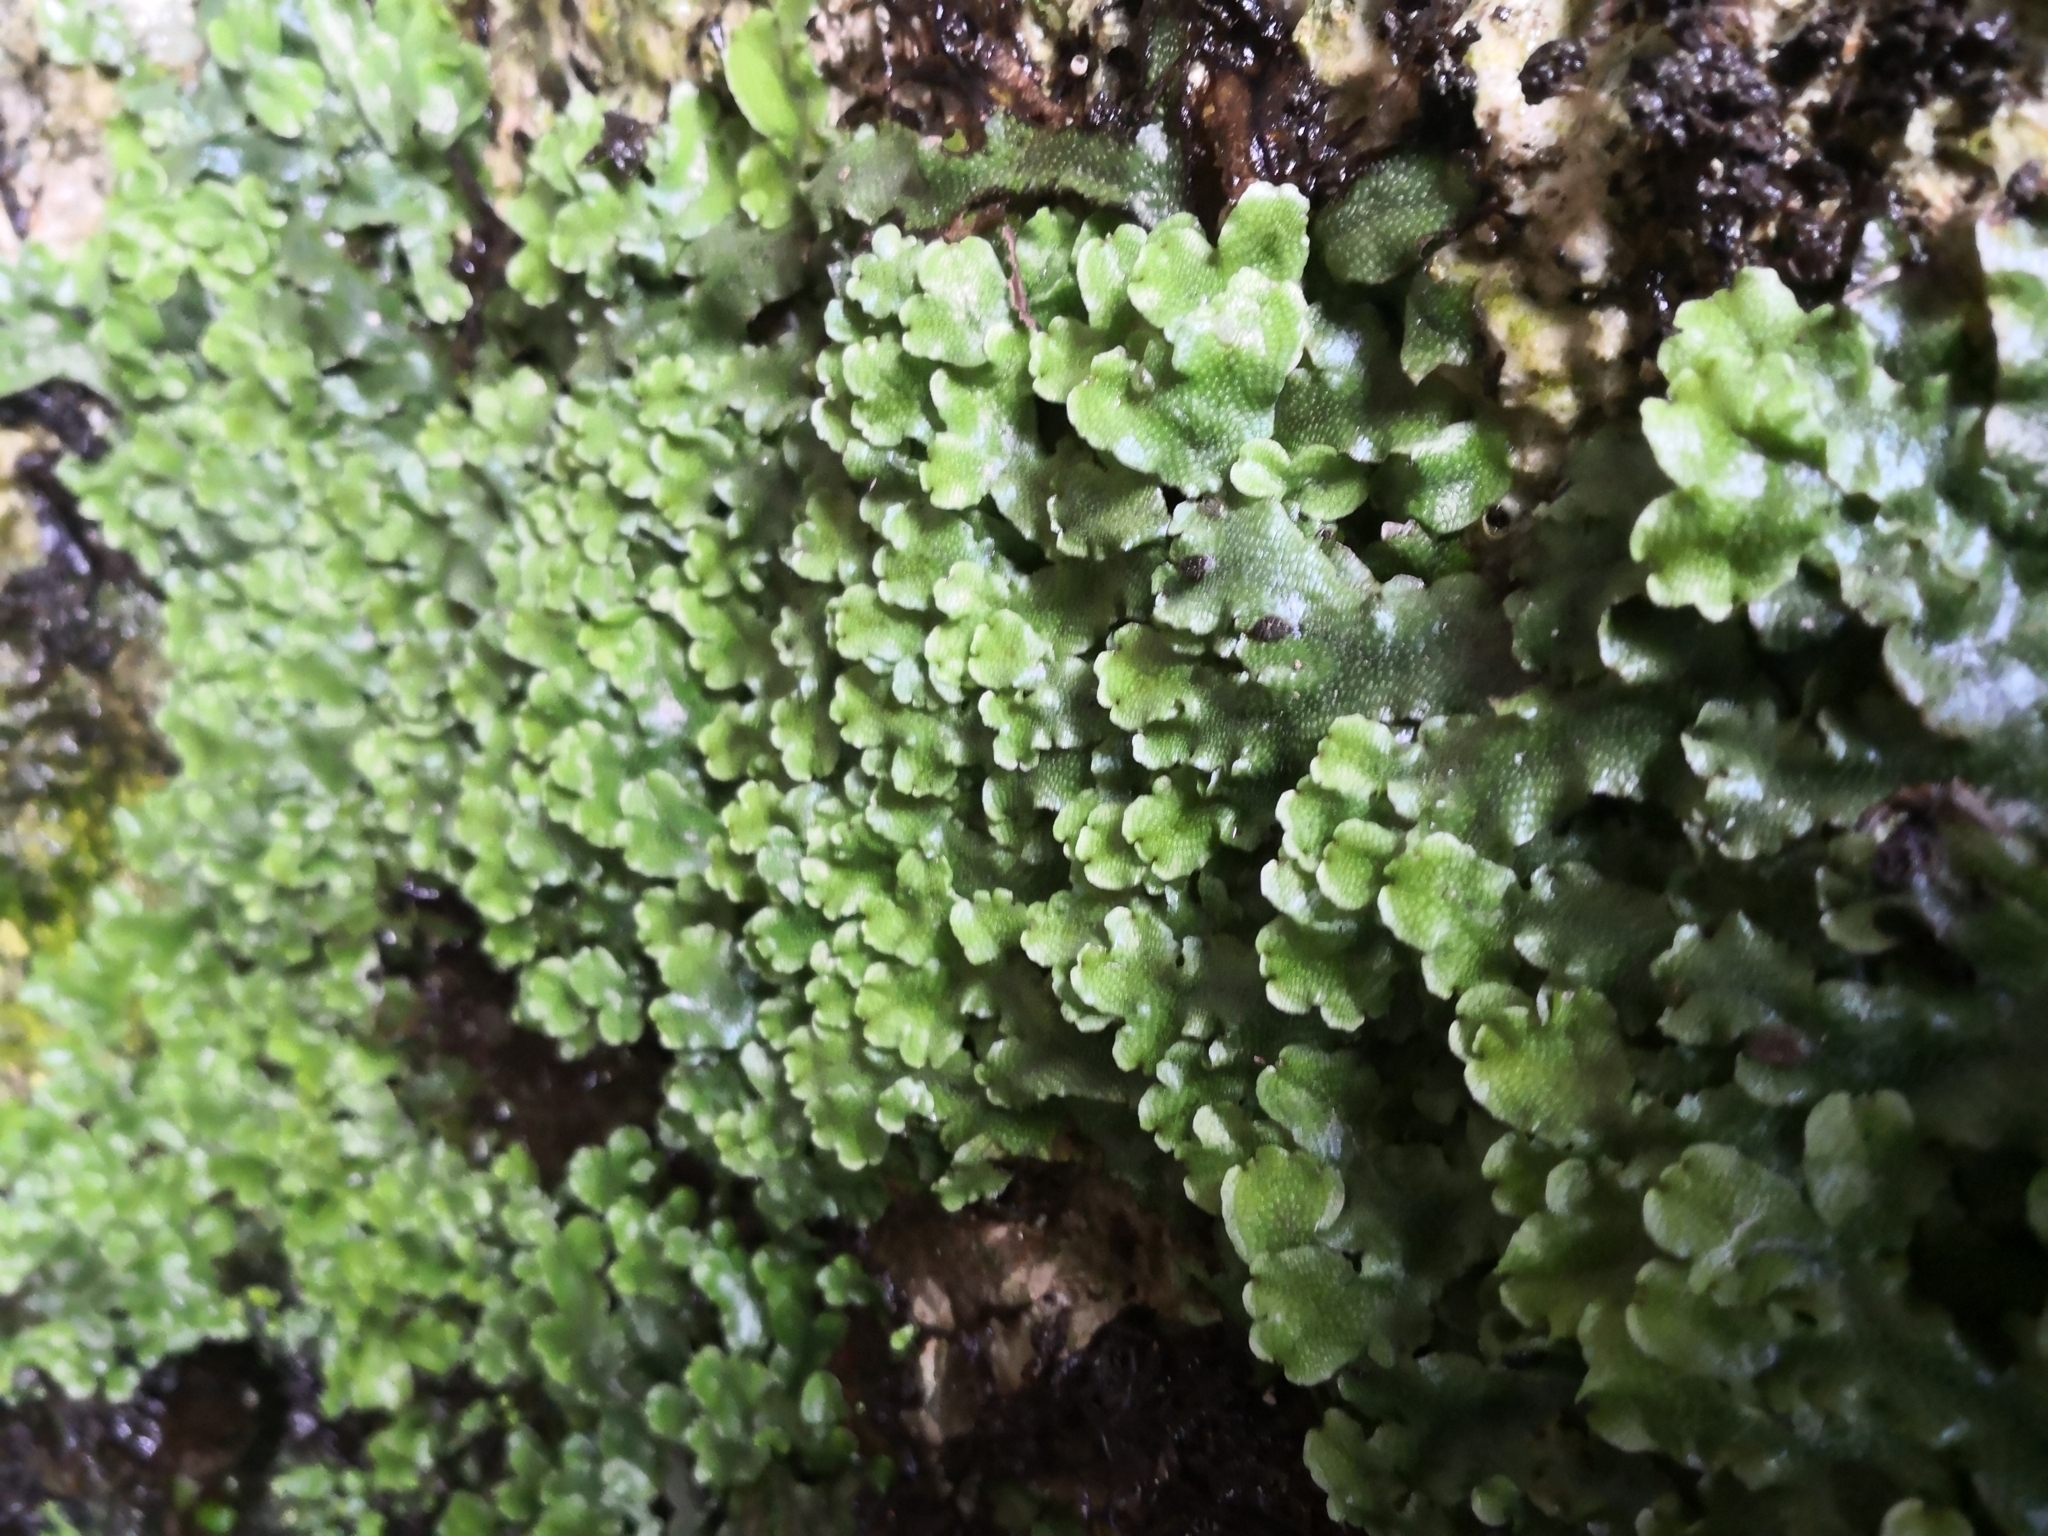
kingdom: Plantae
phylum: Marchantiophyta
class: Marchantiopsida
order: Marchantiales
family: Conocephalaceae
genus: Conocephalum
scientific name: Conocephalum conicum
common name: Great scented liverwort
